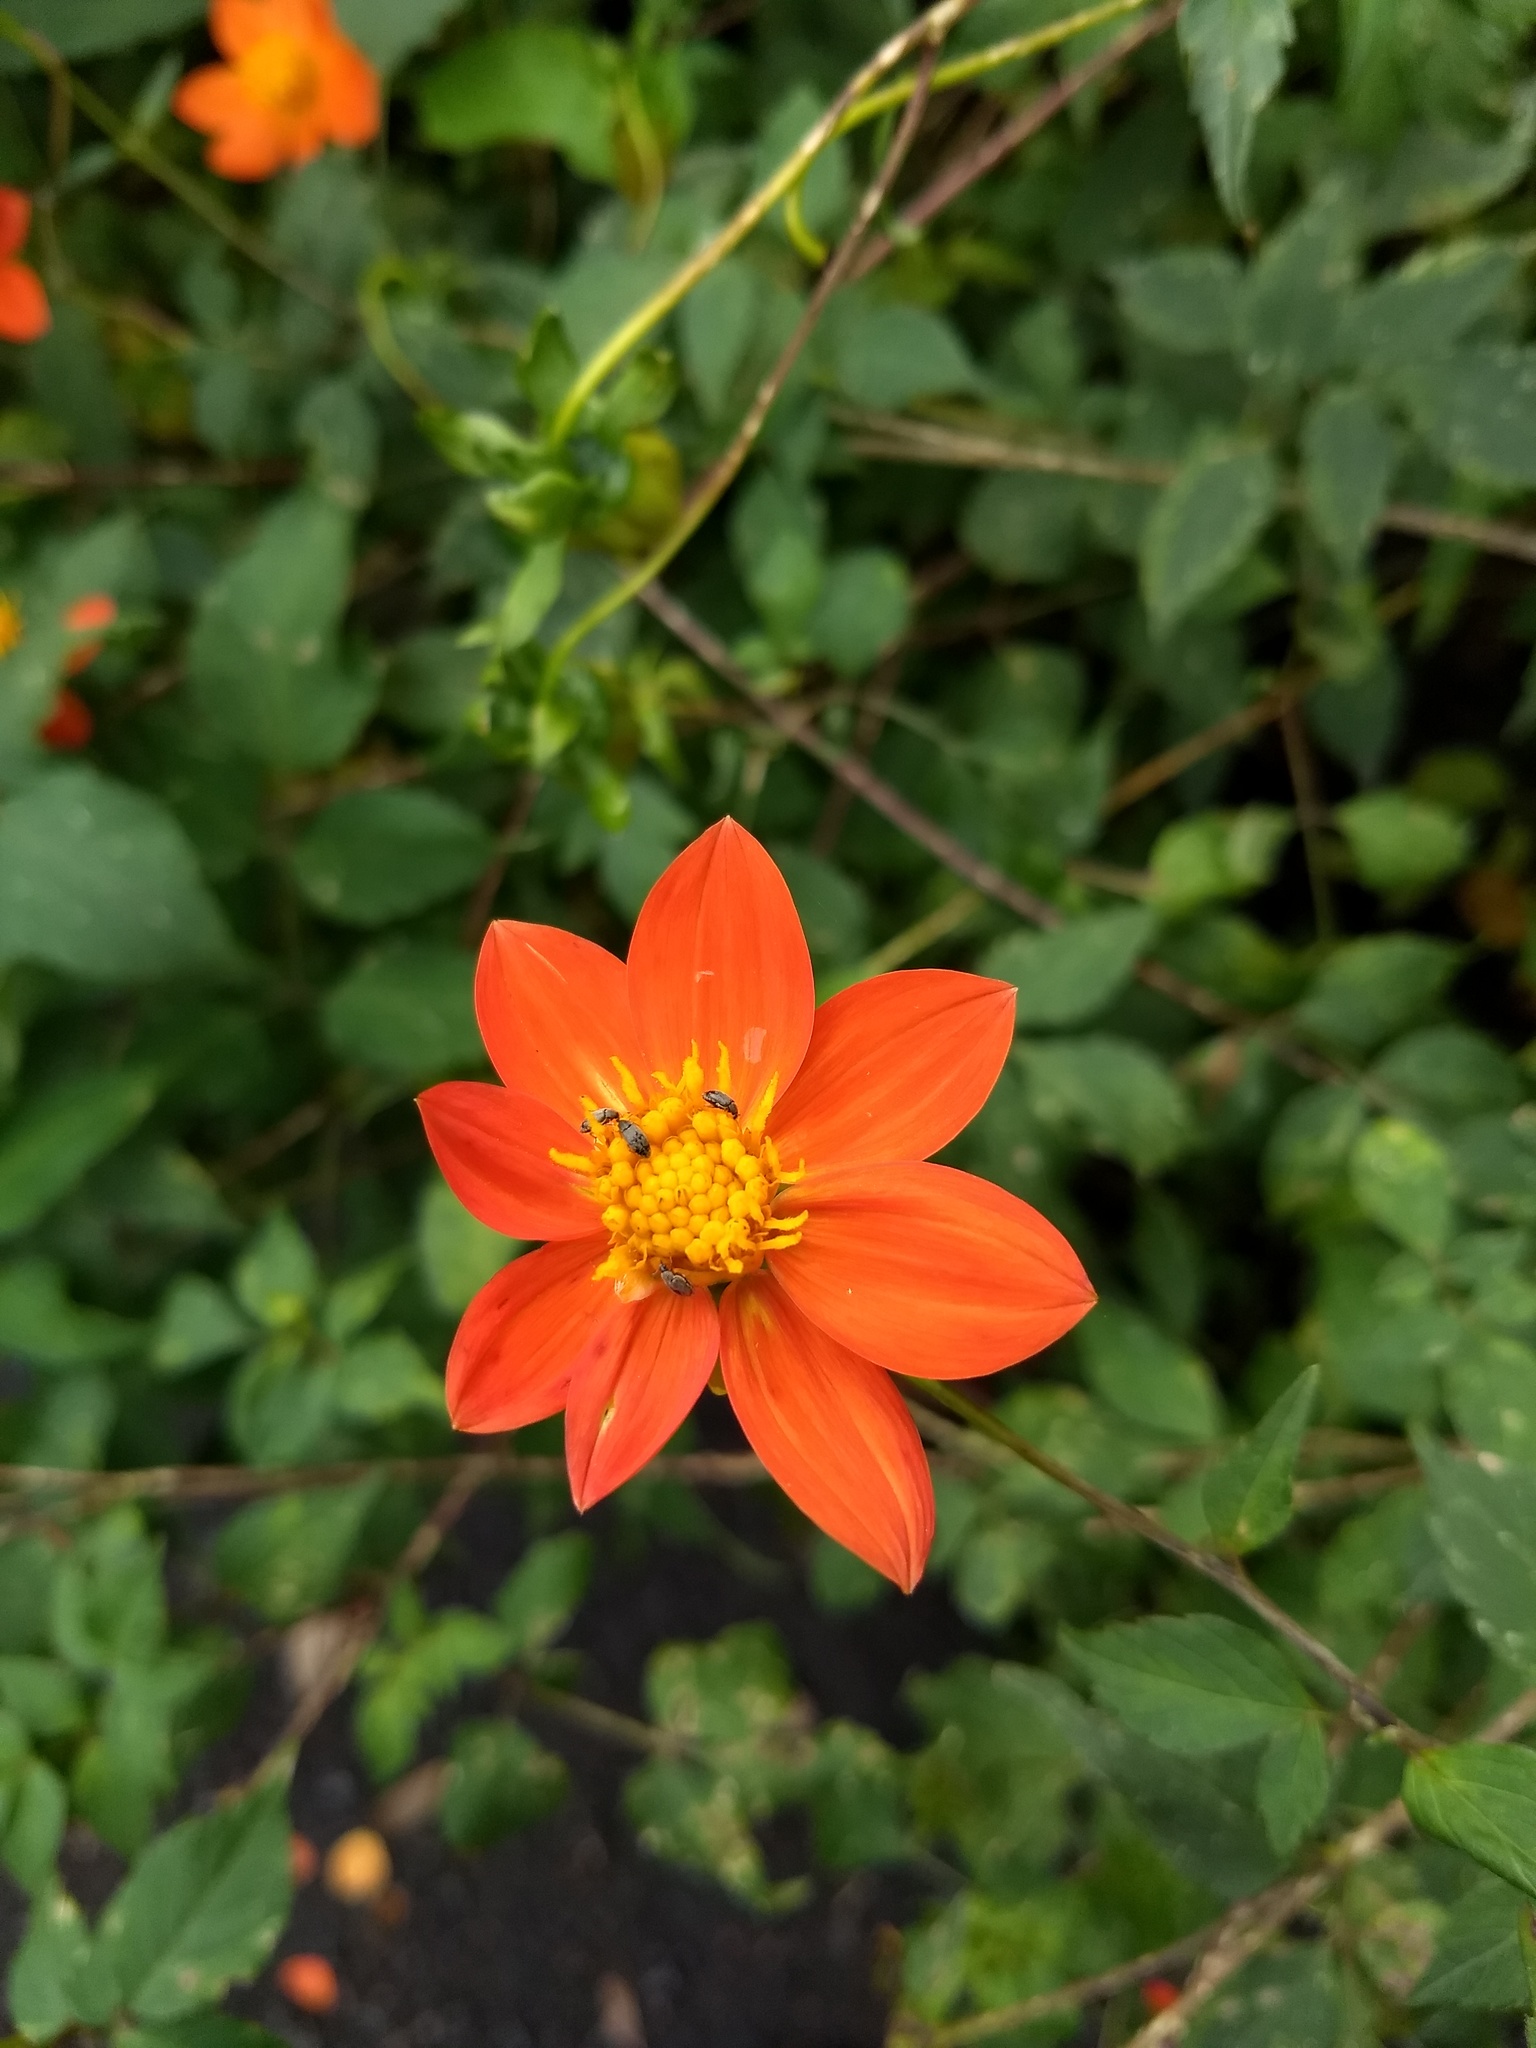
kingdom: Plantae
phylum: Tracheophyta
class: Magnoliopsida
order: Asterales
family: Asteraceae
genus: Dahlia
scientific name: Dahlia coccinea
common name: Red dahlia
